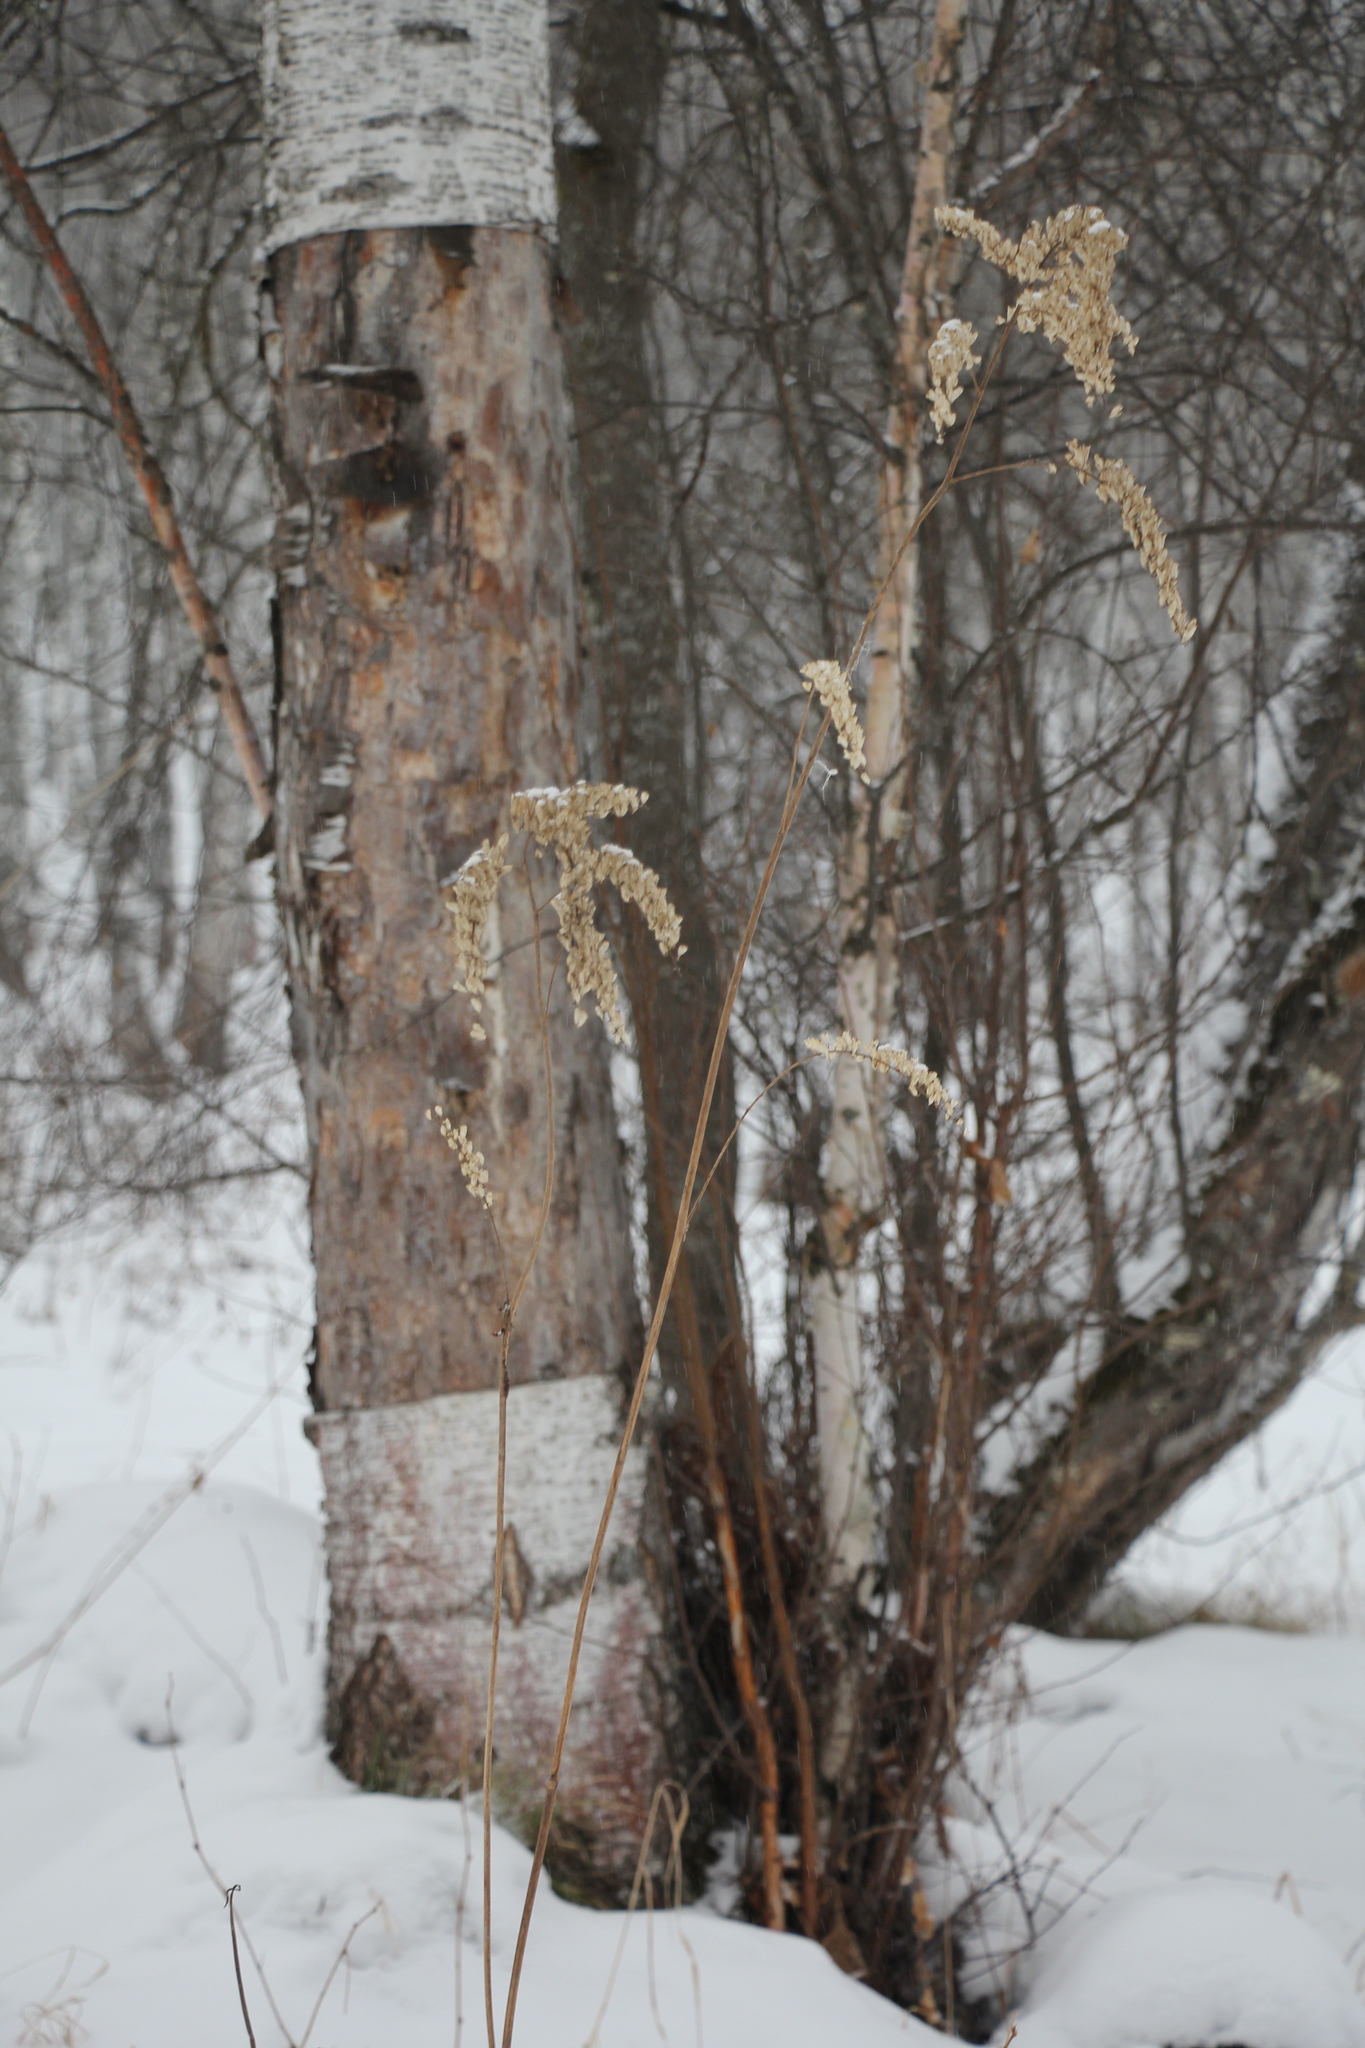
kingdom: Plantae
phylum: Tracheophyta
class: Magnoliopsida
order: Ranunculales
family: Ranunculaceae
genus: Actaea
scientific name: Actaea cimicifuga
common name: Chinese cimicifuga
